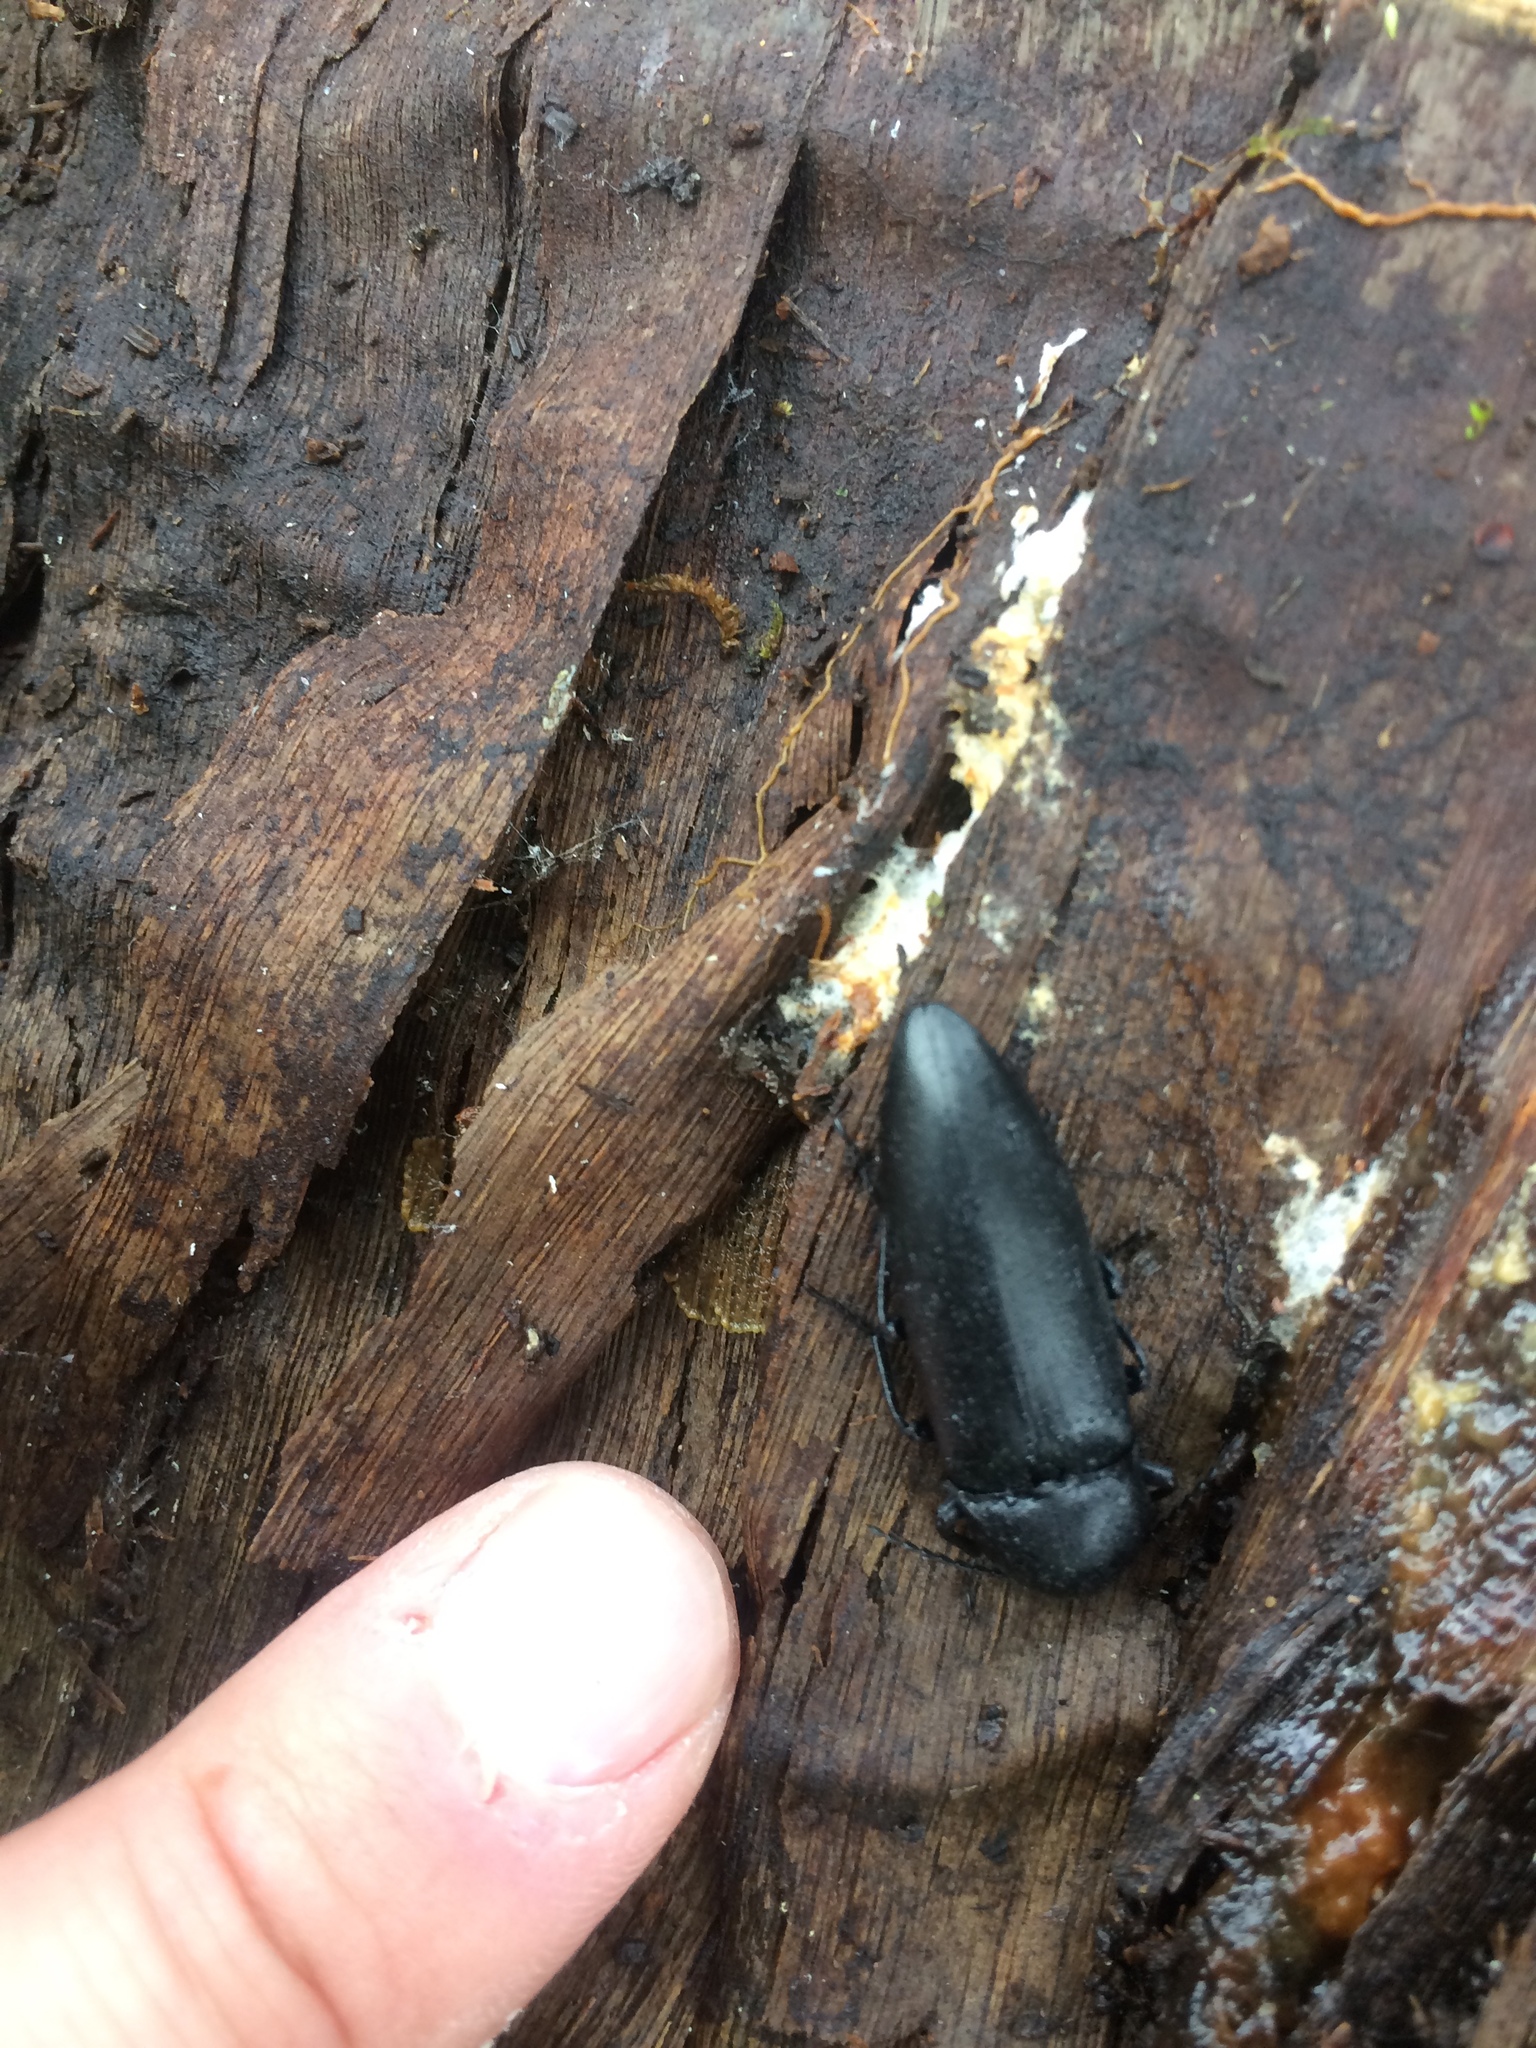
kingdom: Animalia
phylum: Arthropoda
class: Insecta
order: Coleoptera
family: Elateridae
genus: Elater
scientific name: Elater
